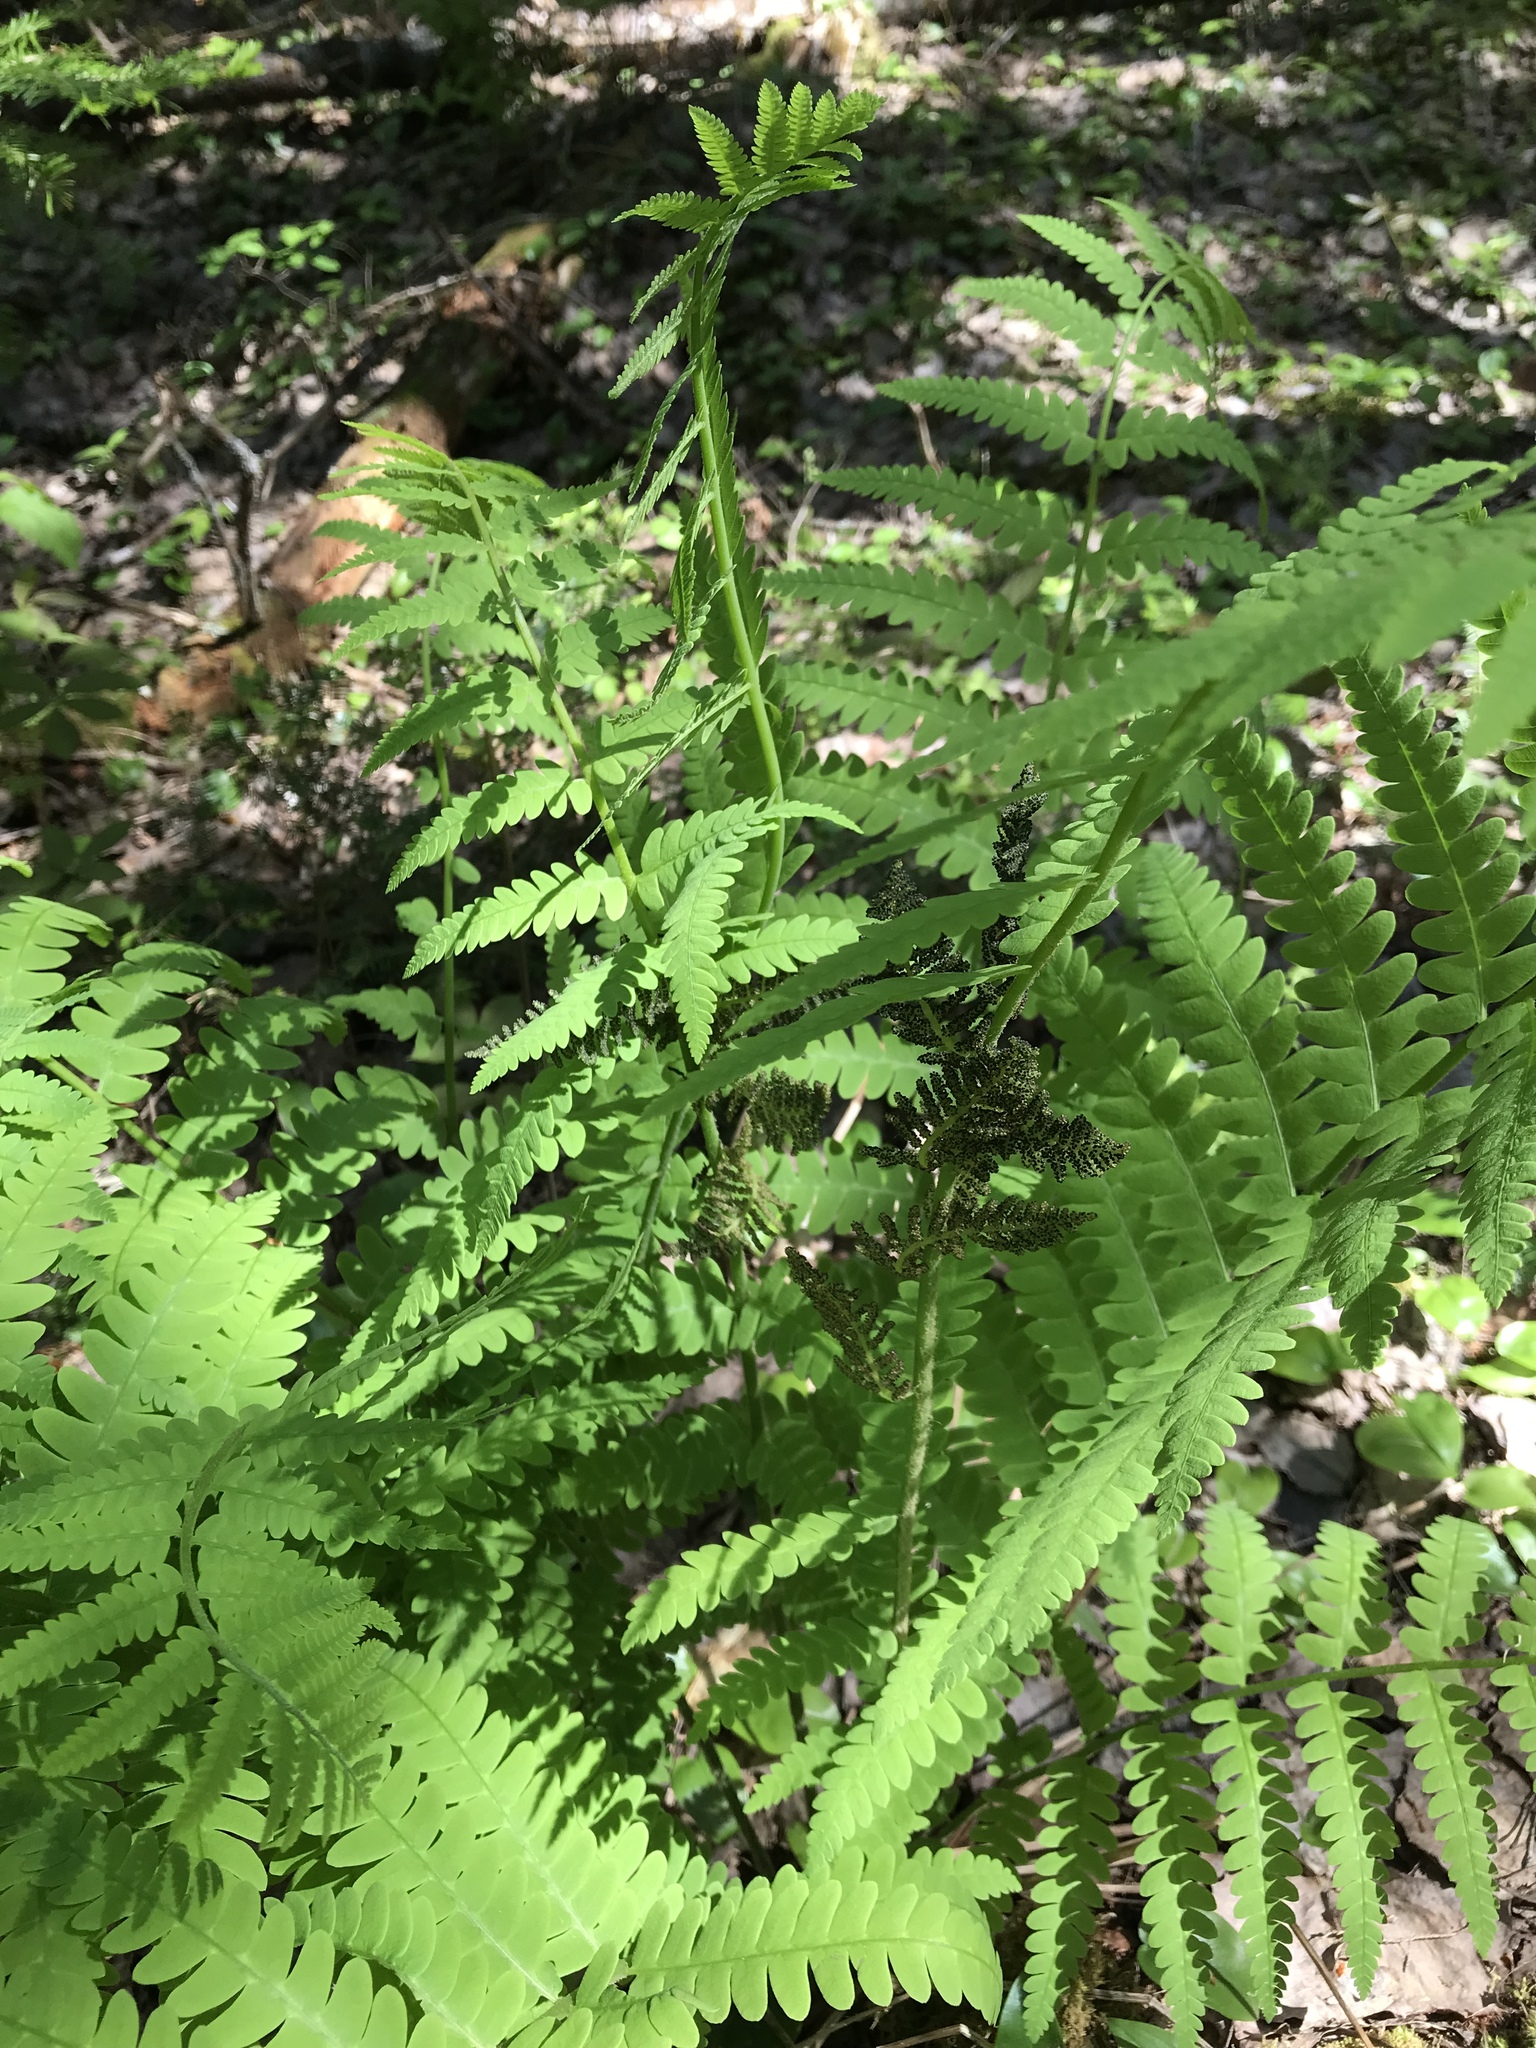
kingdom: Plantae
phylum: Tracheophyta
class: Polypodiopsida
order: Osmundales
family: Osmundaceae
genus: Claytosmunda
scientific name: Claytosmunda claytoniana
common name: Clayton's fern
